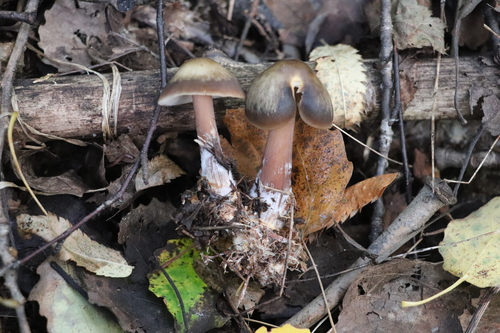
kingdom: Fungi
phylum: Basidiomycota
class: Agaricomycetes
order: Agaricales
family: Omphalotaceae
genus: Rhodocollybia
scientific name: Rhodocollybia butyracea
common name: Butter cap
